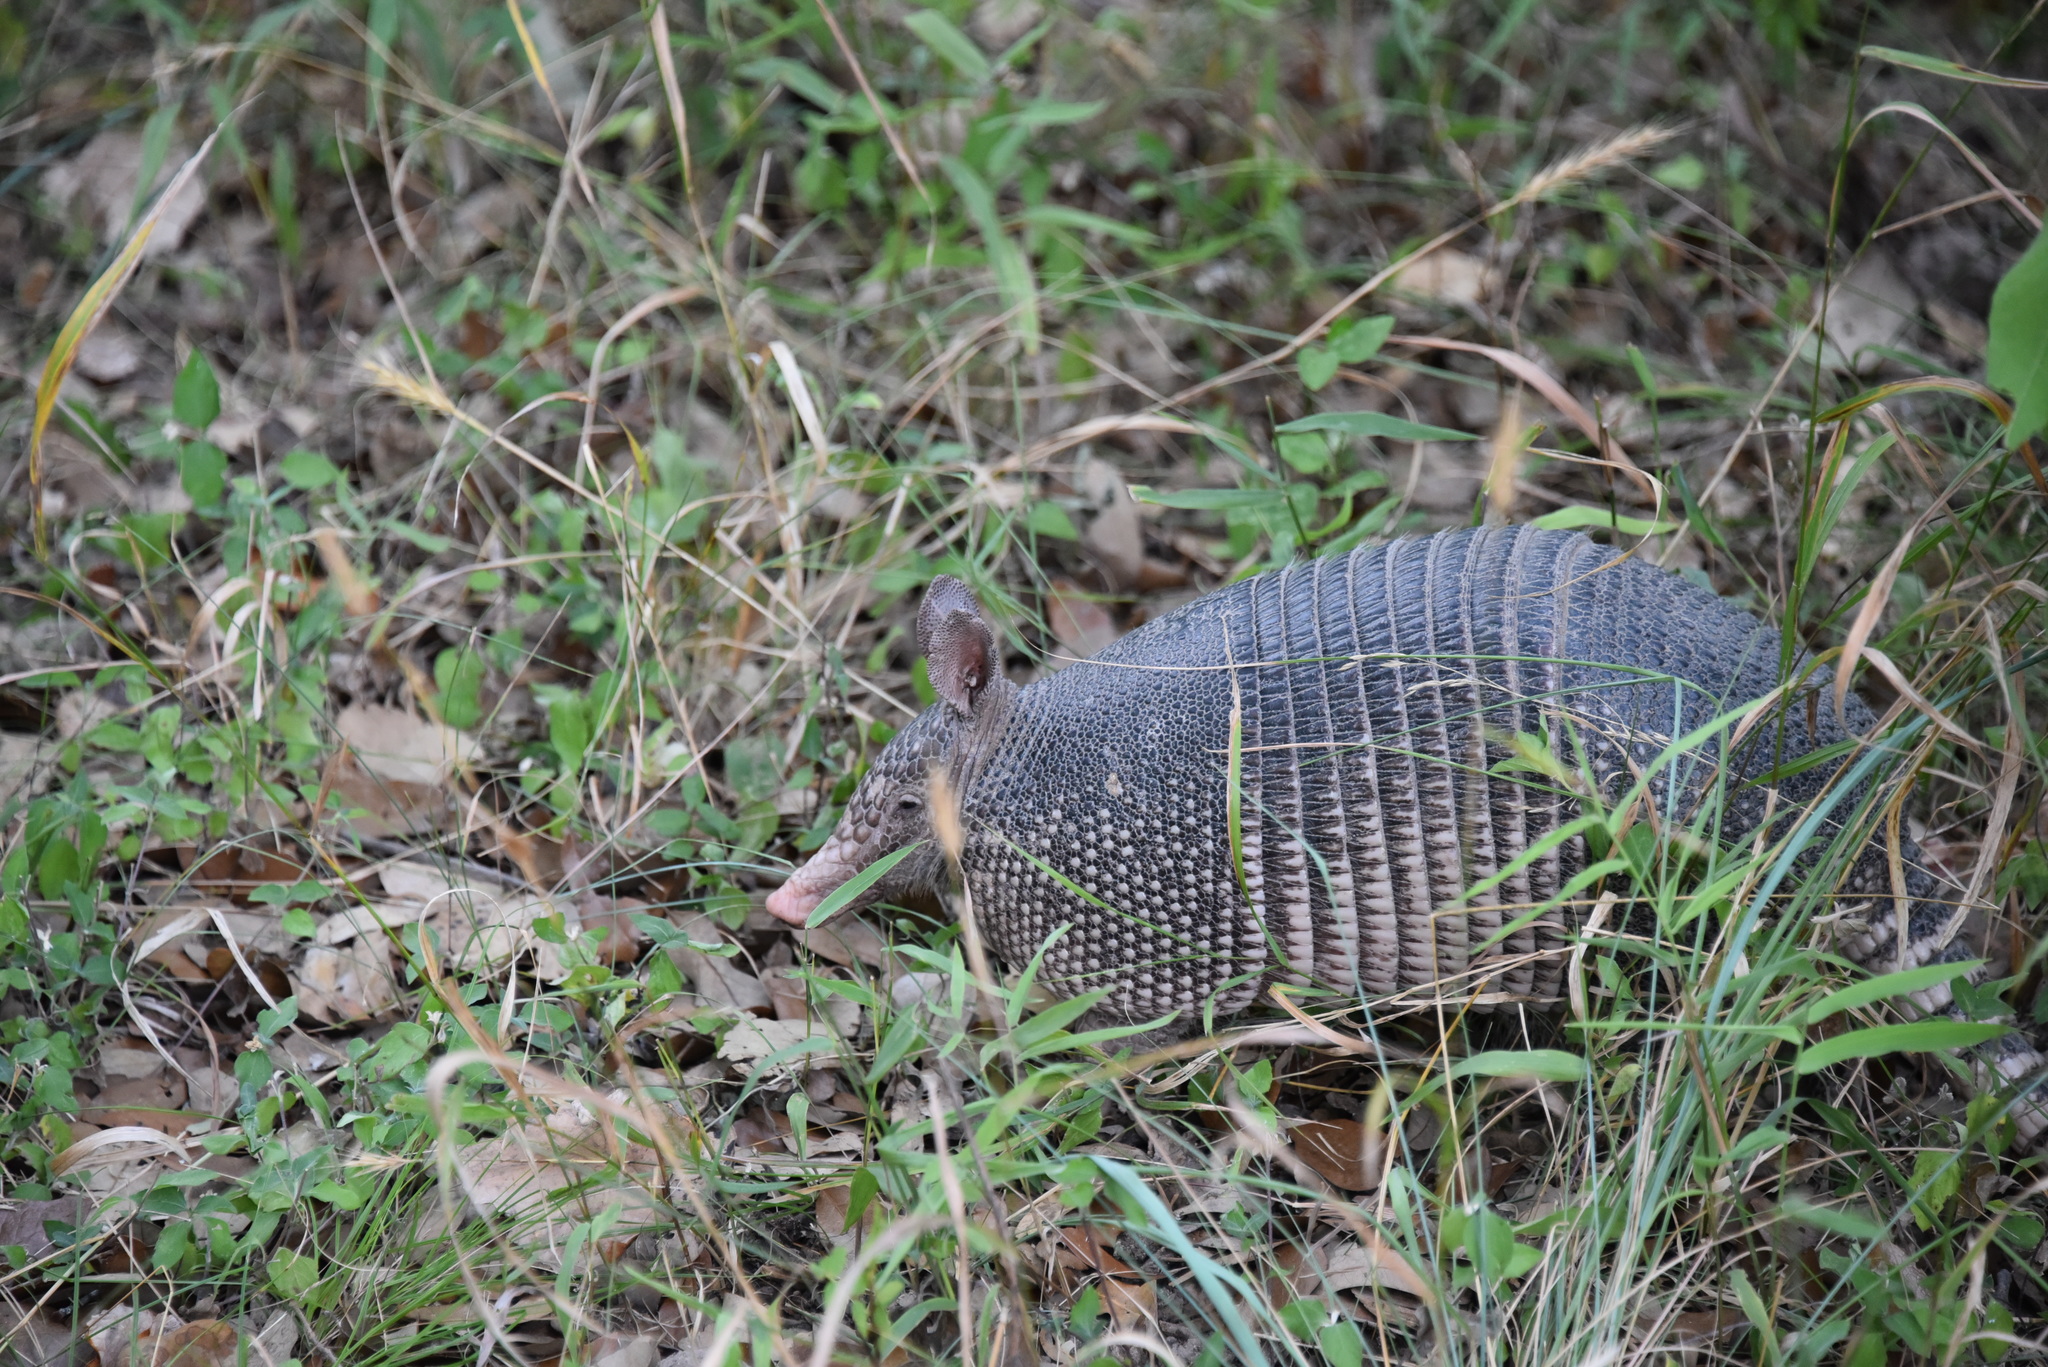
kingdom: Animalia
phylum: Chordata
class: Mammalia
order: Cingulata
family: Dasypodidae
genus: Dasypus
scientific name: Dasypus novemcinctus
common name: Nine-banded armadillo
